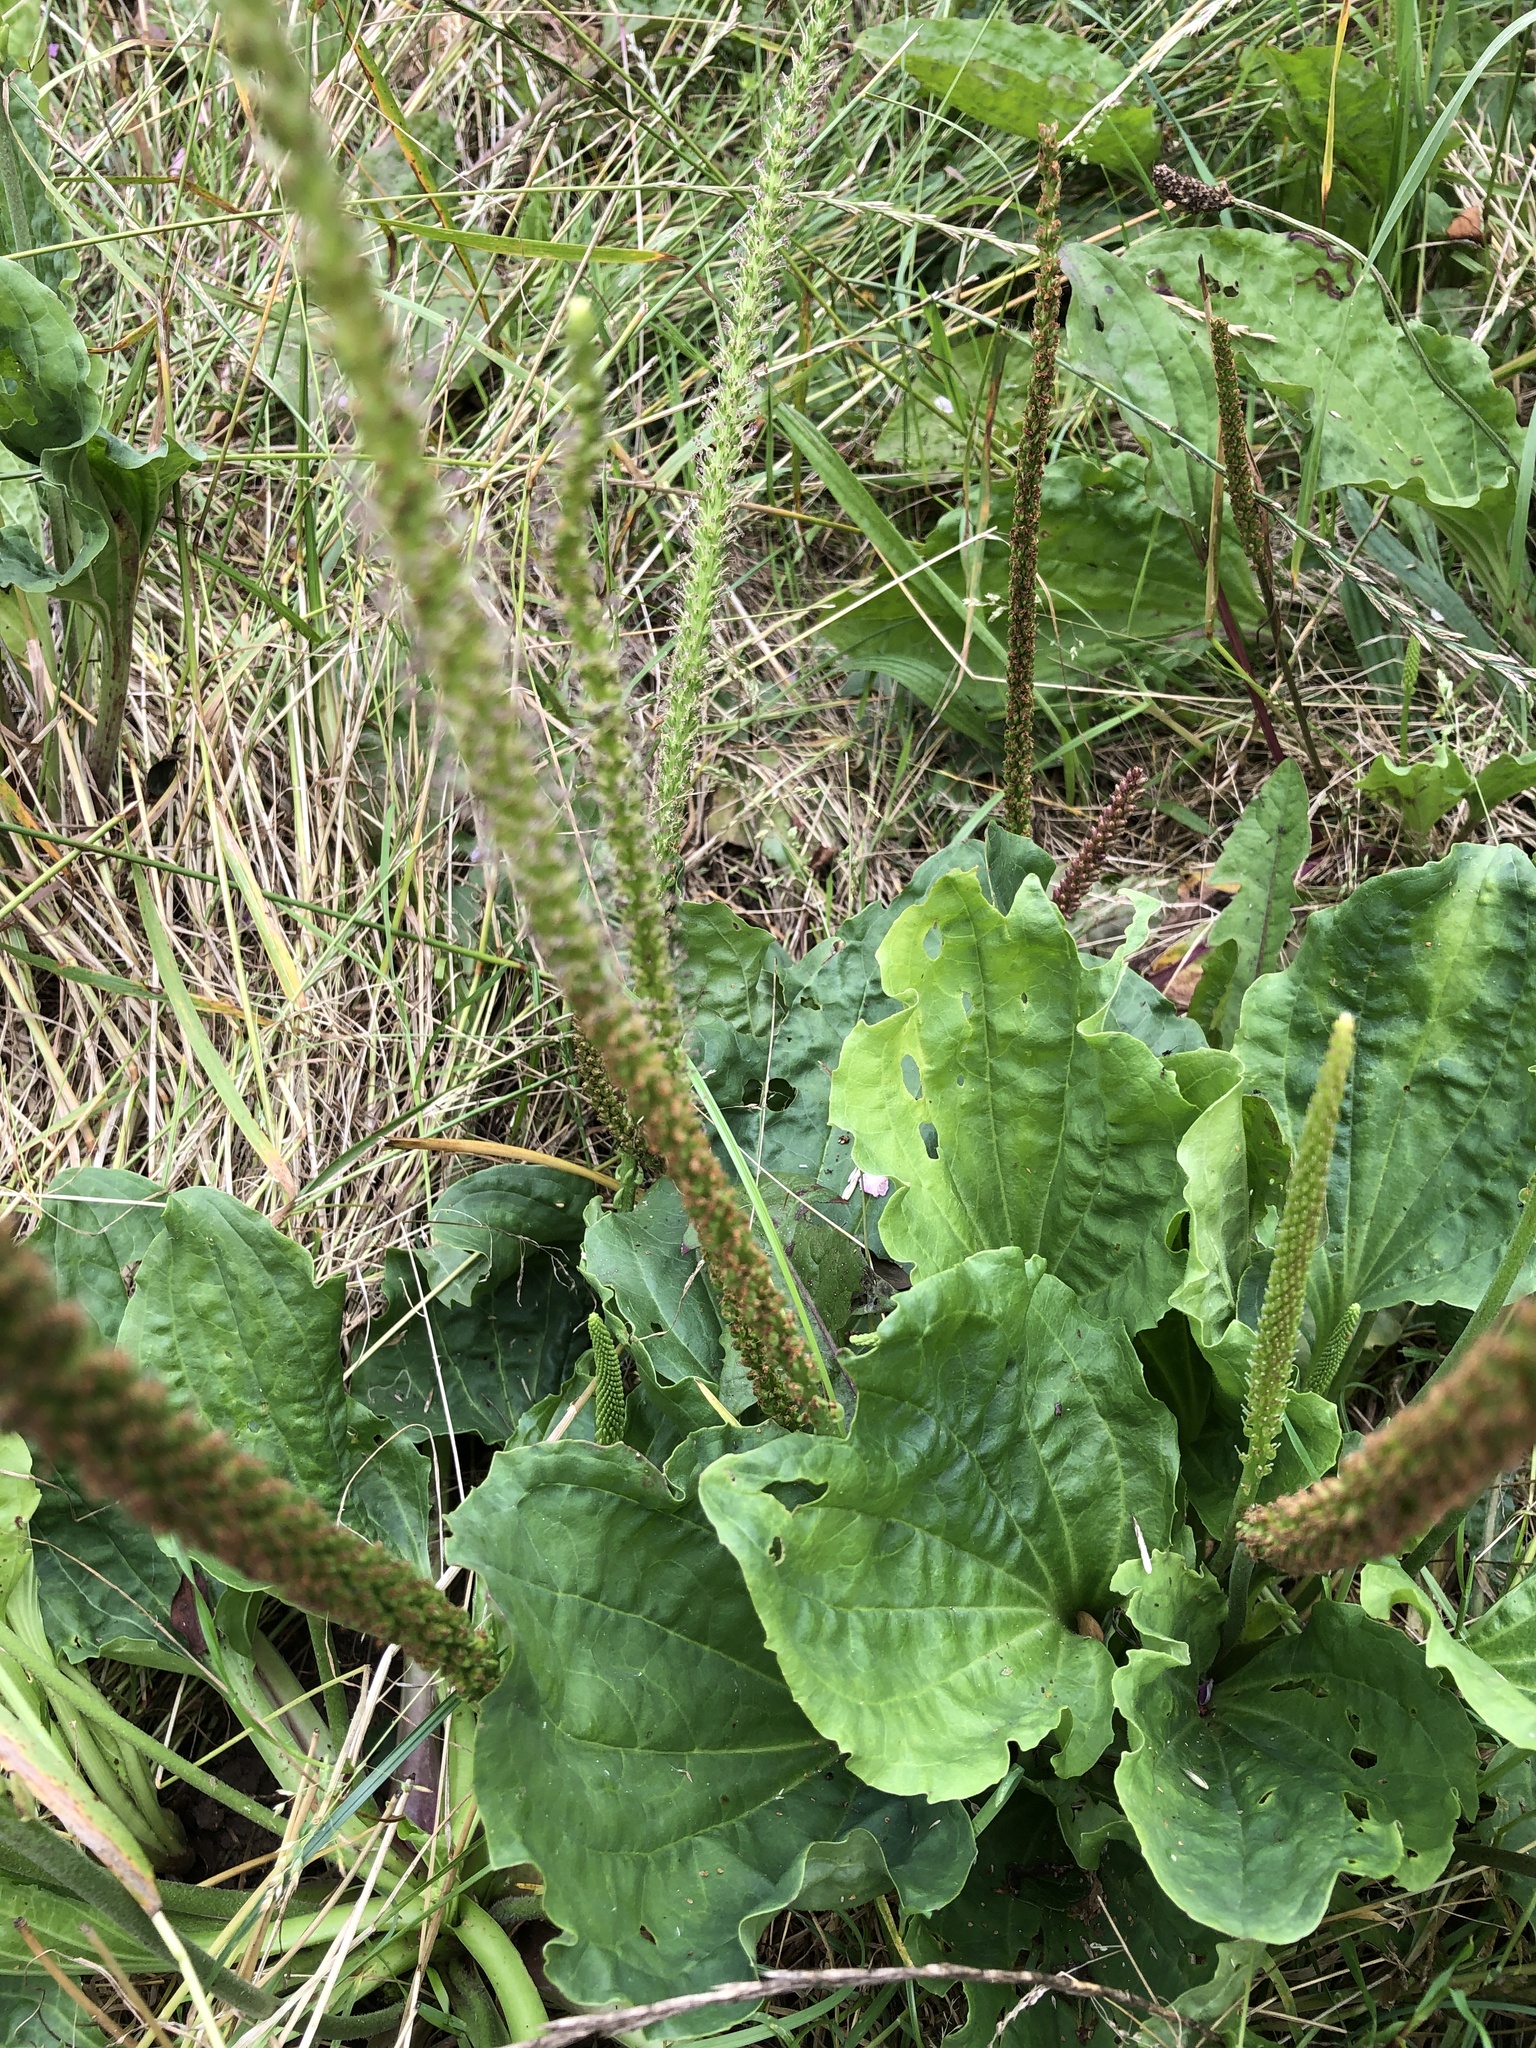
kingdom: Plantae
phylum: Tracheophyta
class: Magnoliopsida
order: Lamiales
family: Plantaginaceae
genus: Plantago
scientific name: Plantago major
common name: Common plantain
